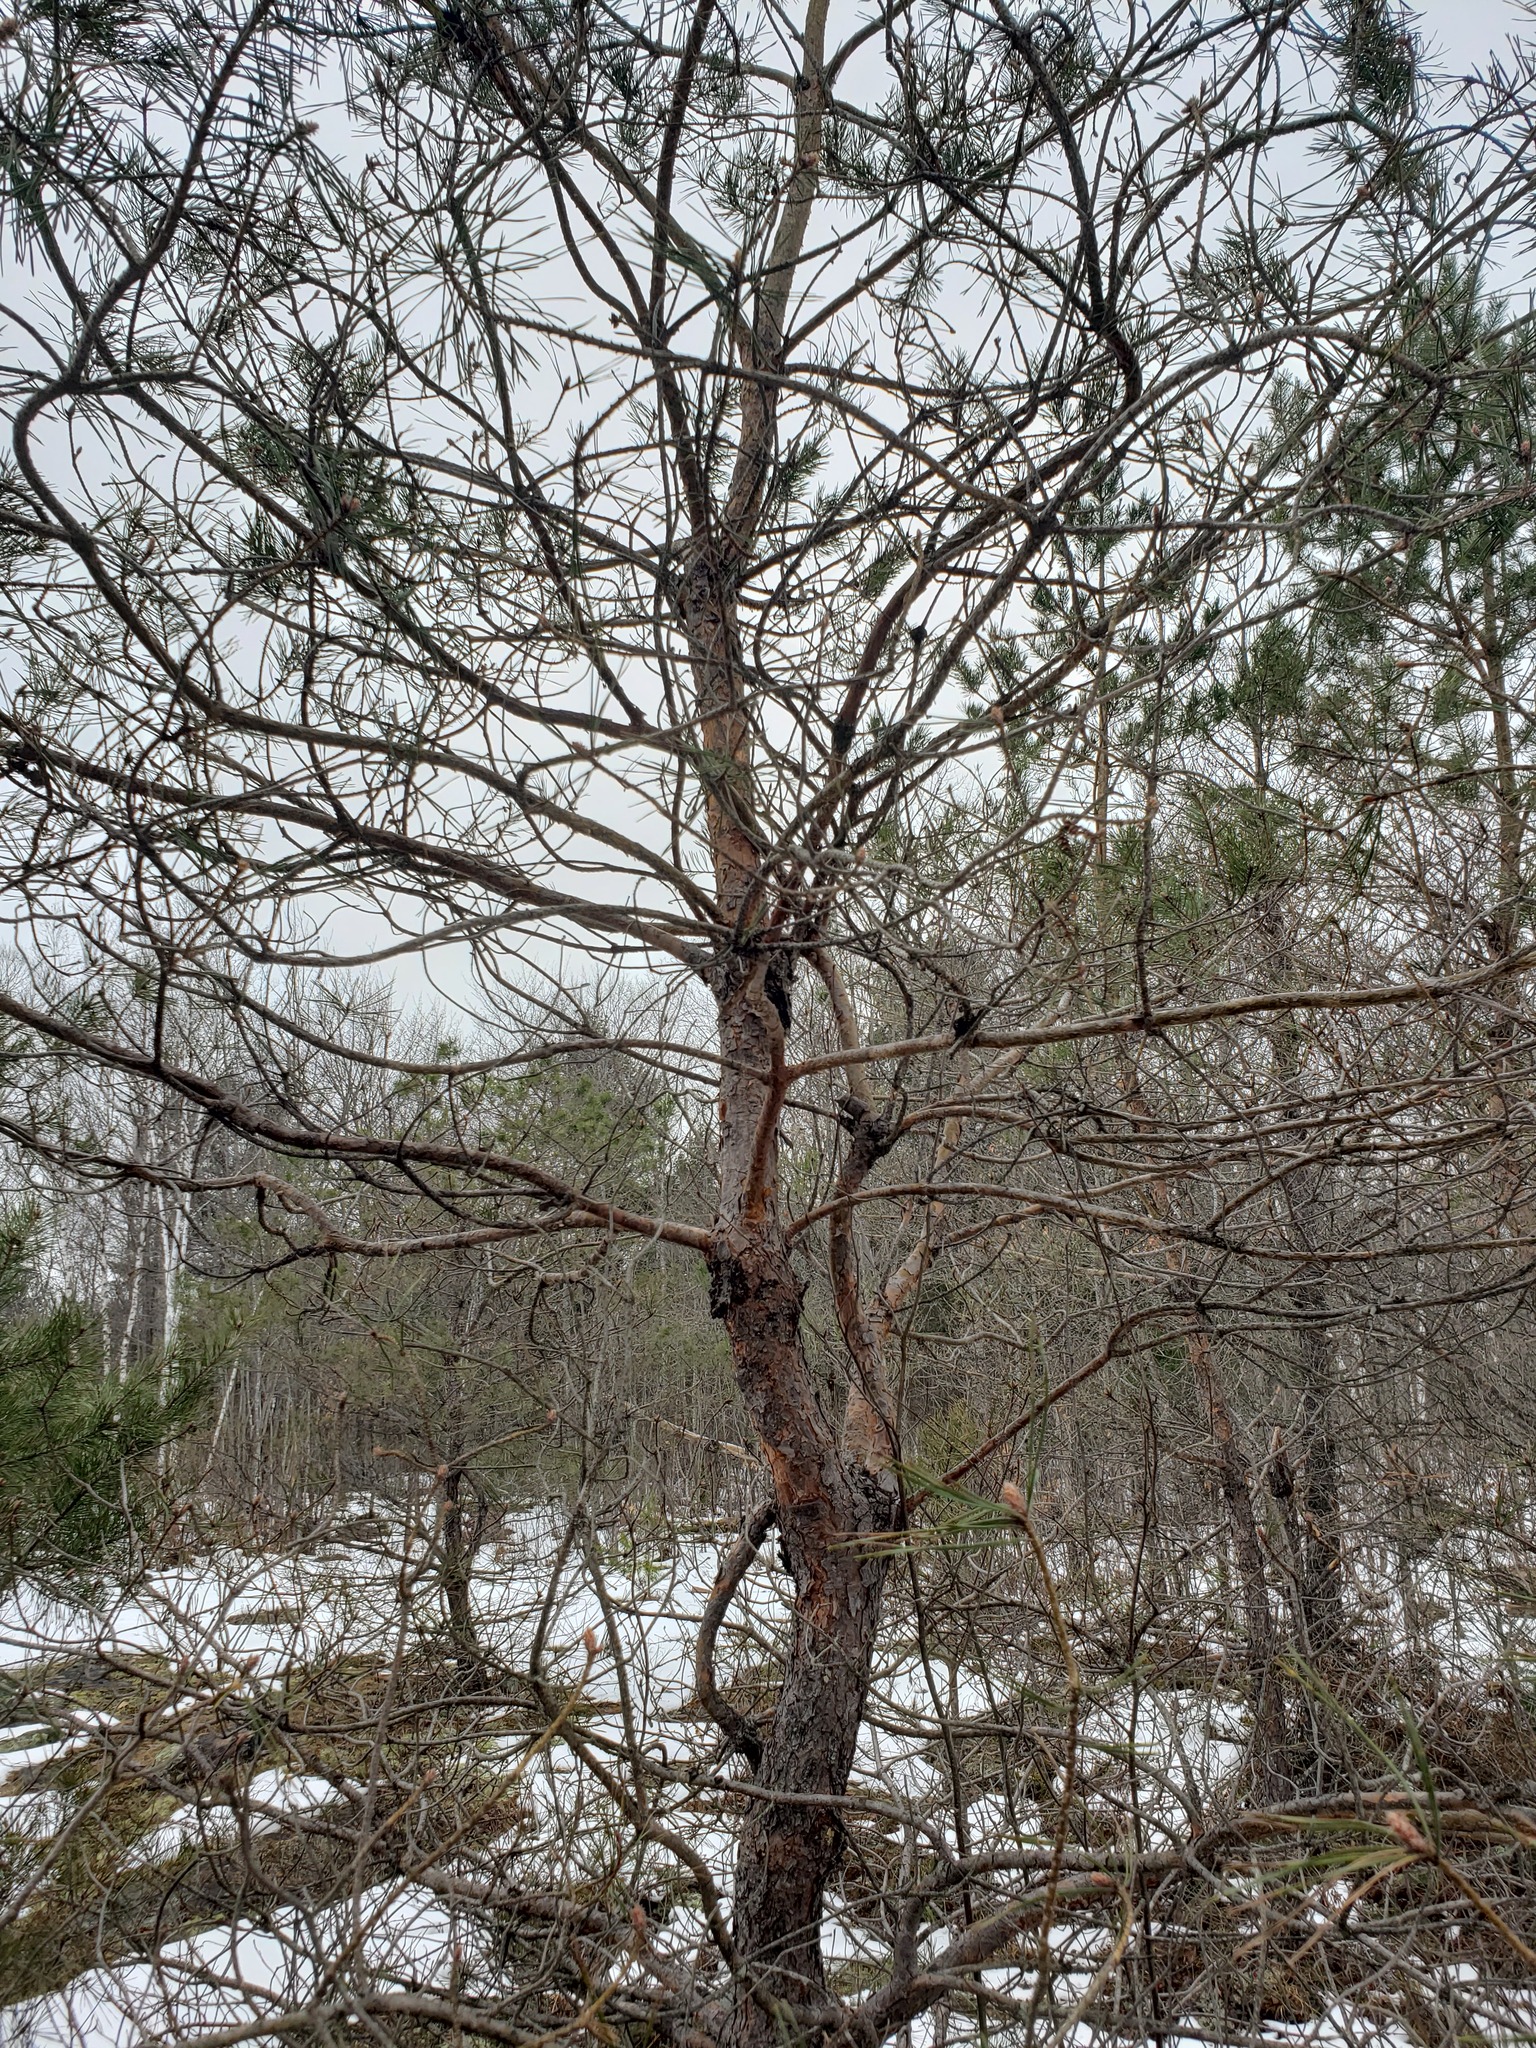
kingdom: Plantae
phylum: Tracheophyta
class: Pinopsida
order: Pinales
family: Pinaceae
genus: Pinus
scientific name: Pinus sylvestris
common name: Scots pine
